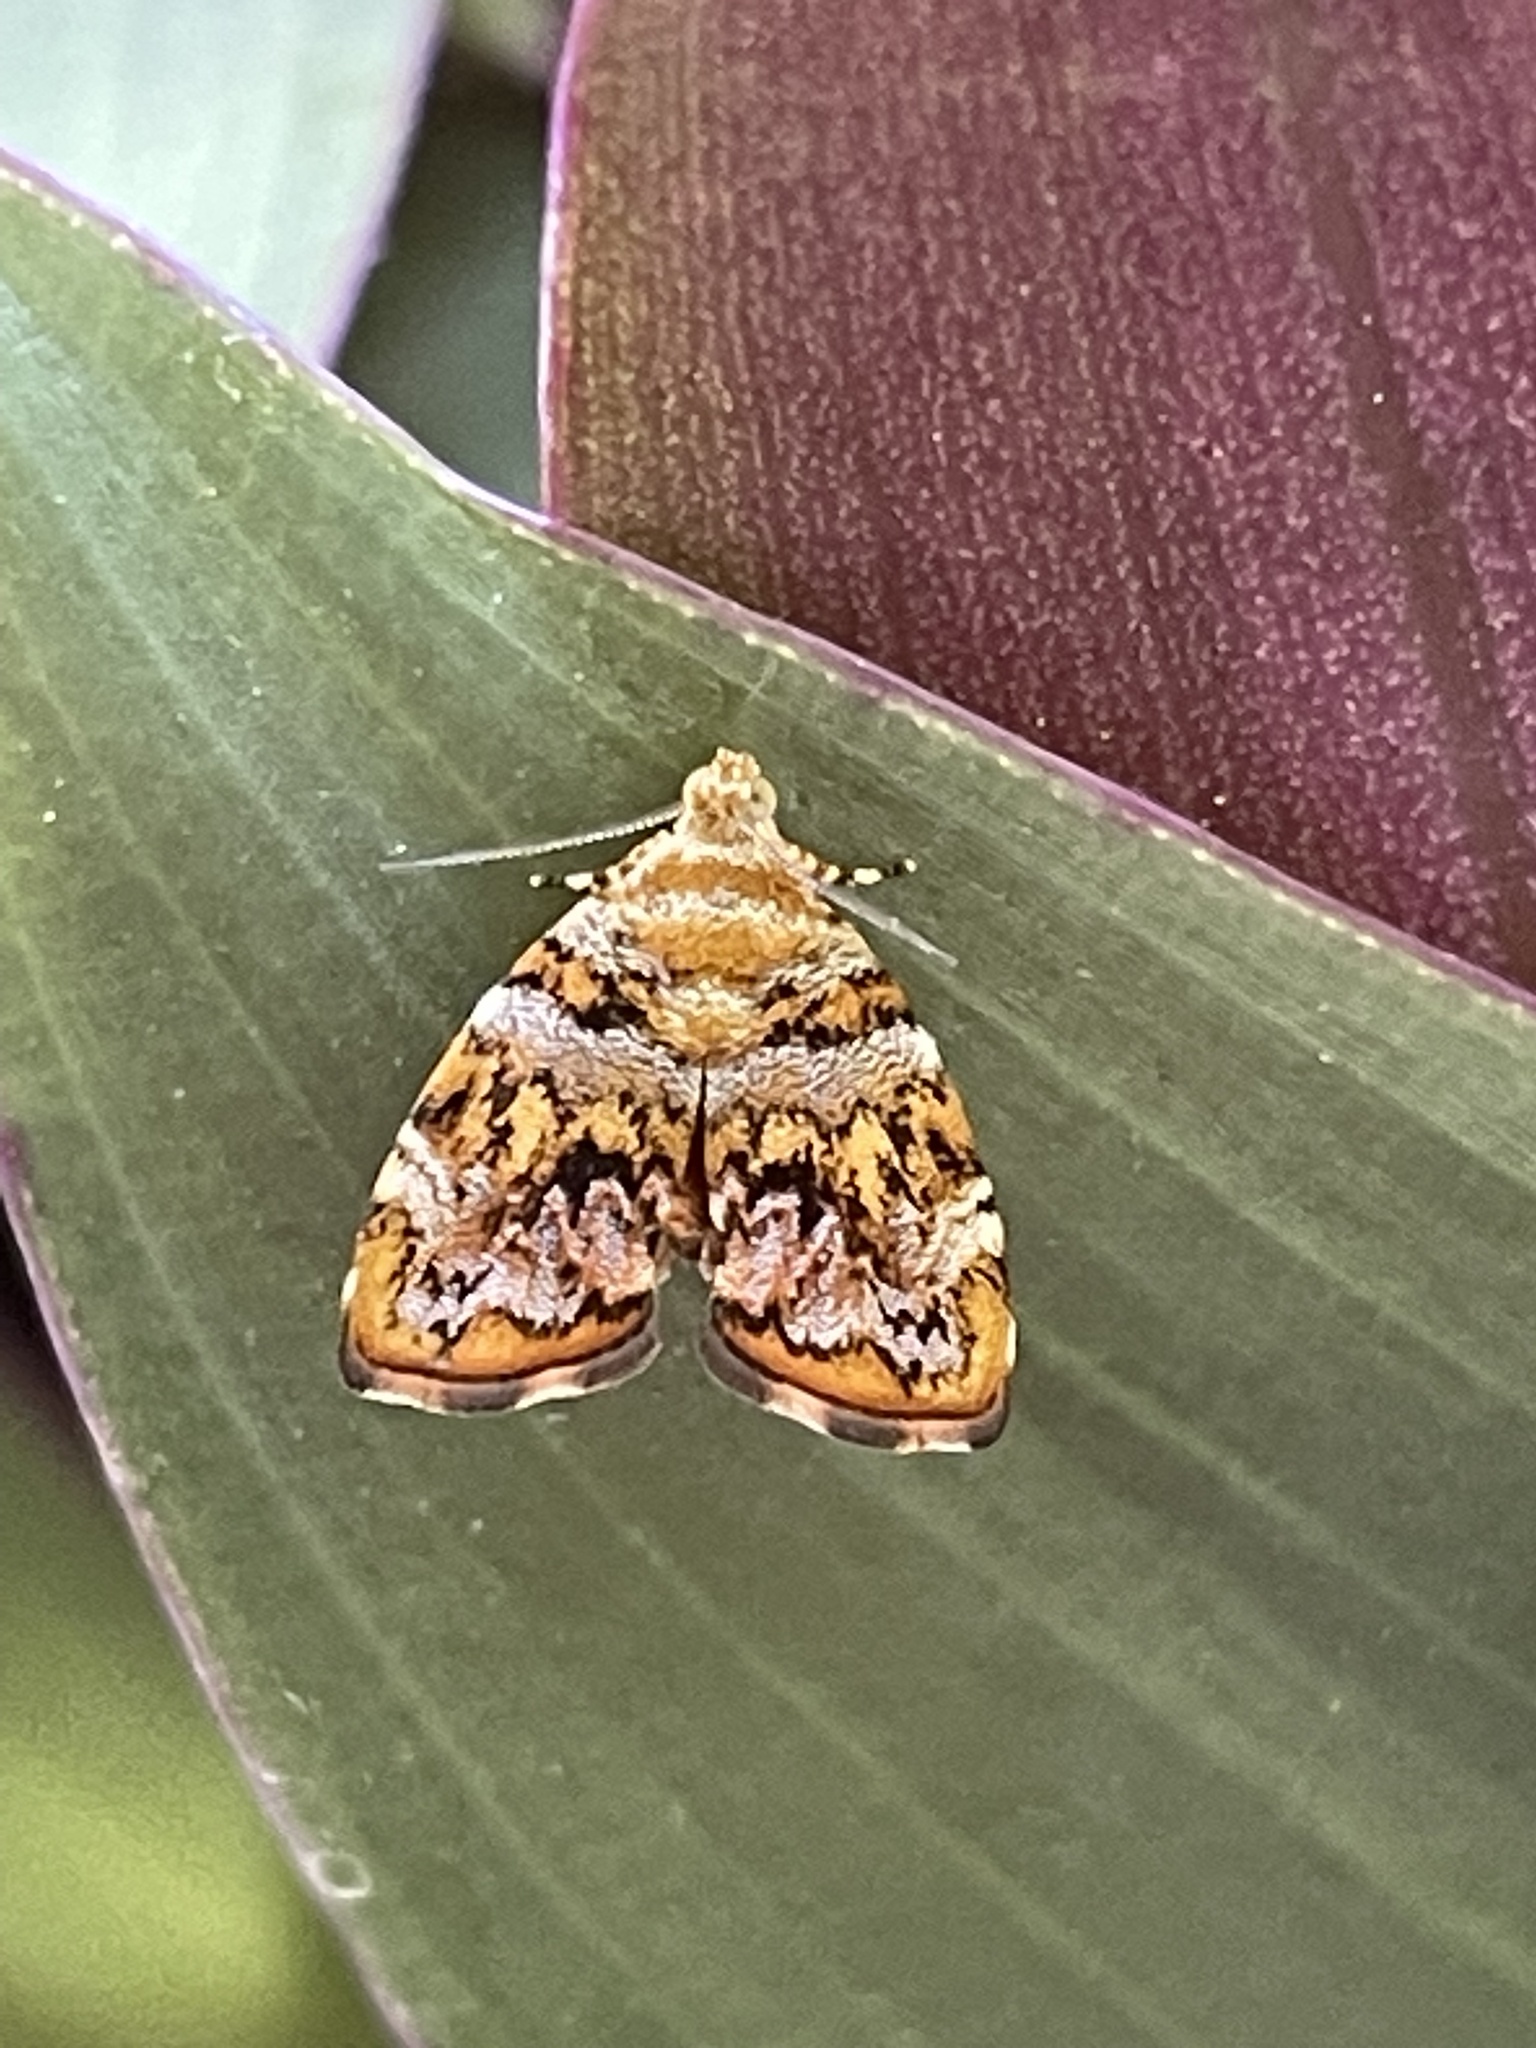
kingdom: Animalia
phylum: Arthropoda
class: Insecta
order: Lepidoptera
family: Choreutidae
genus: Choreutis
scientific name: Choreutis ophiosema
